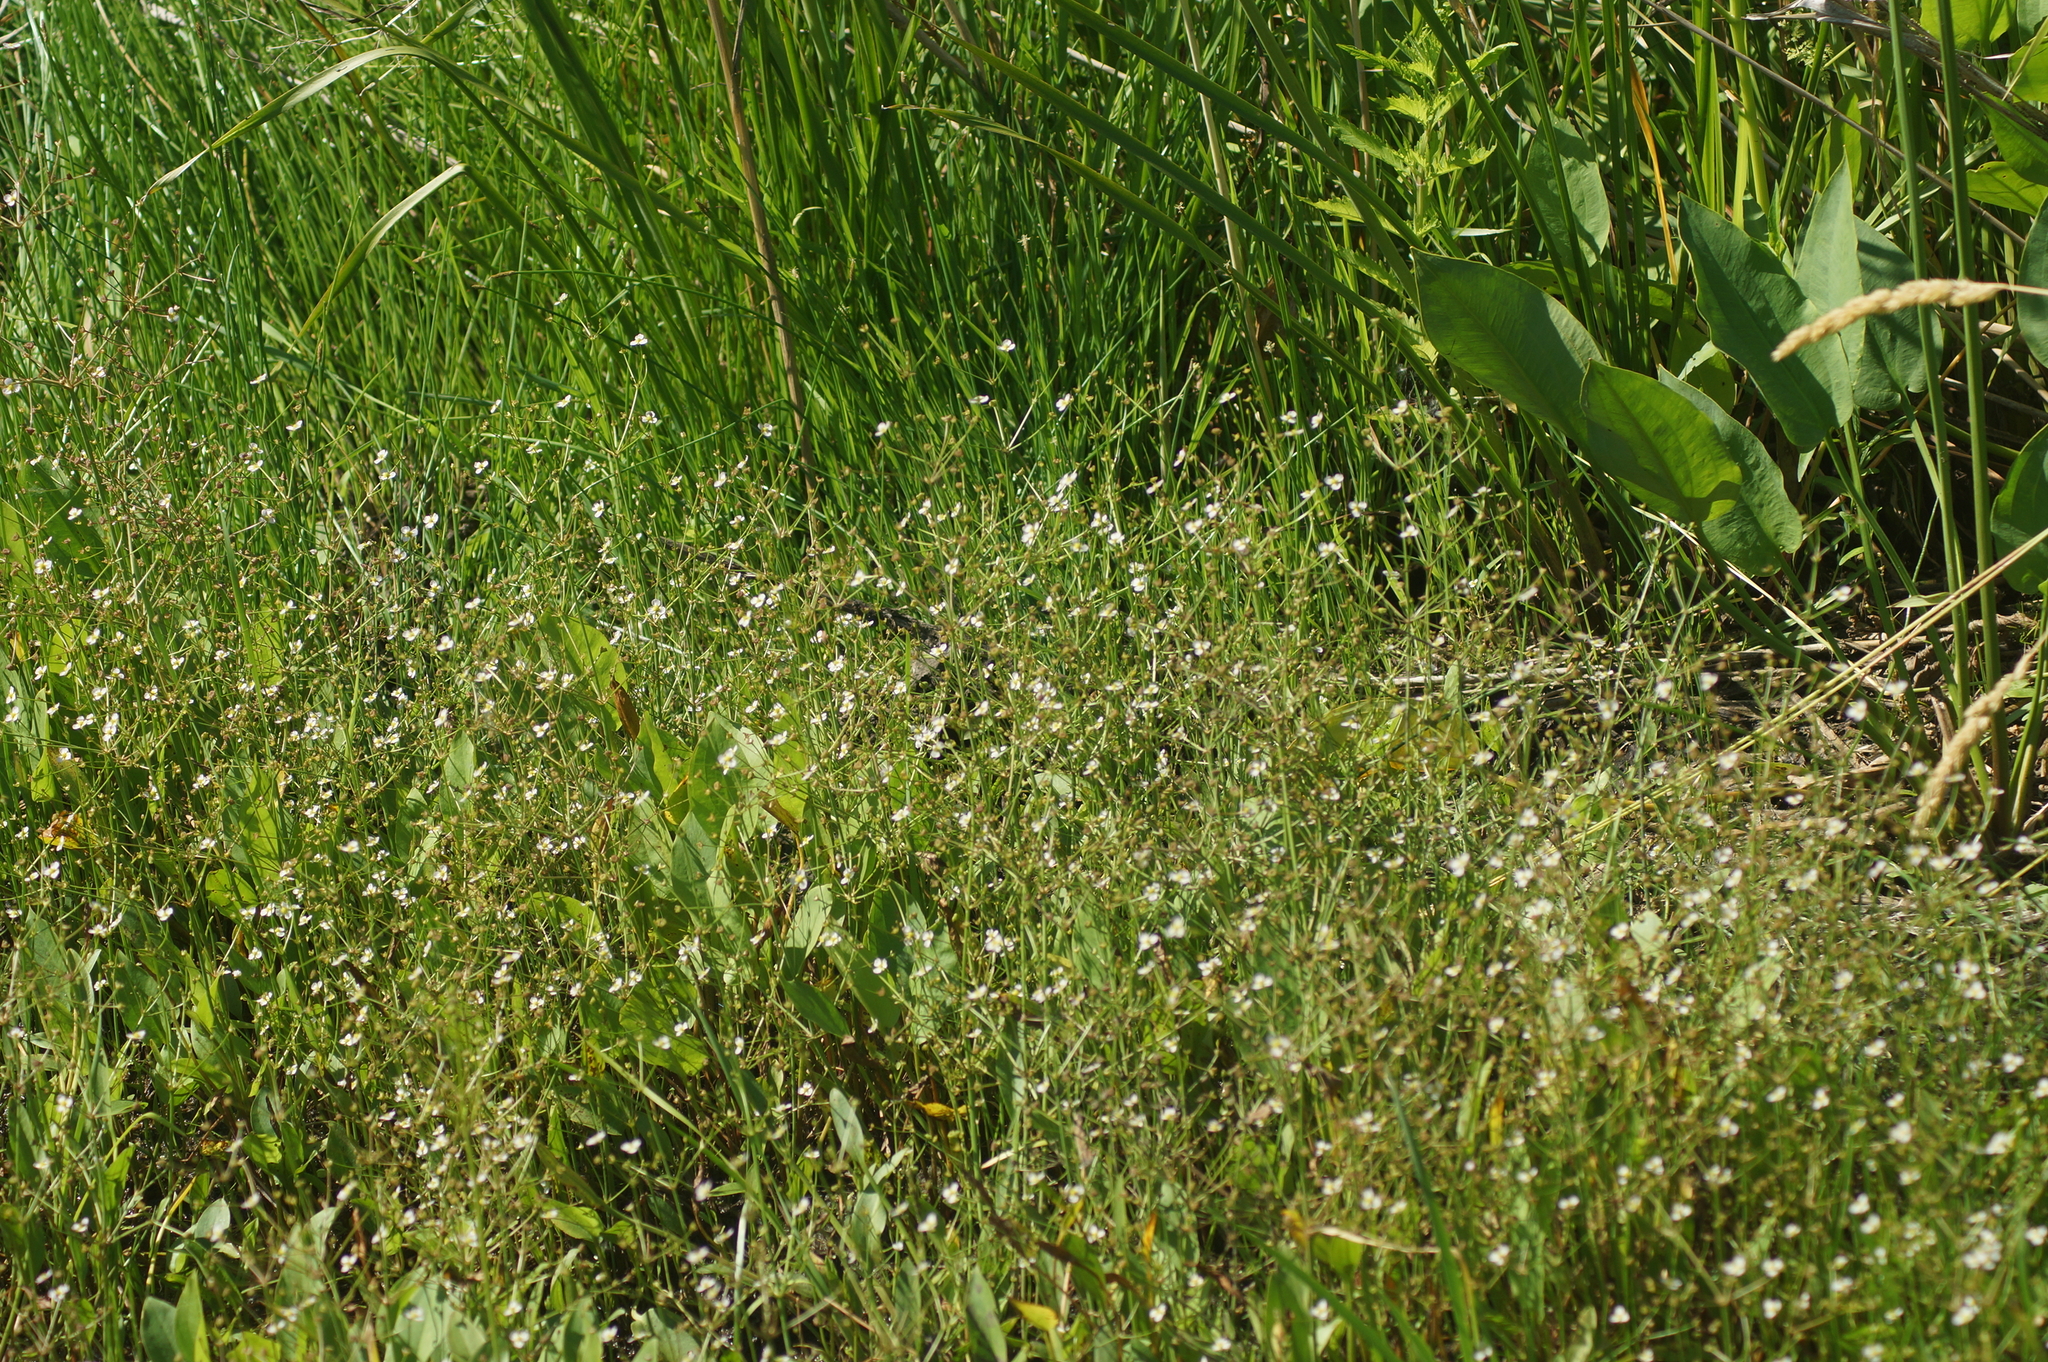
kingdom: Plantae
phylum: Tracheophyta
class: Liliopsida
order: Alismatales
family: Alismataceae
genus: Alisma
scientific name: Alisma plantago-aquatica
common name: Water-plantain
